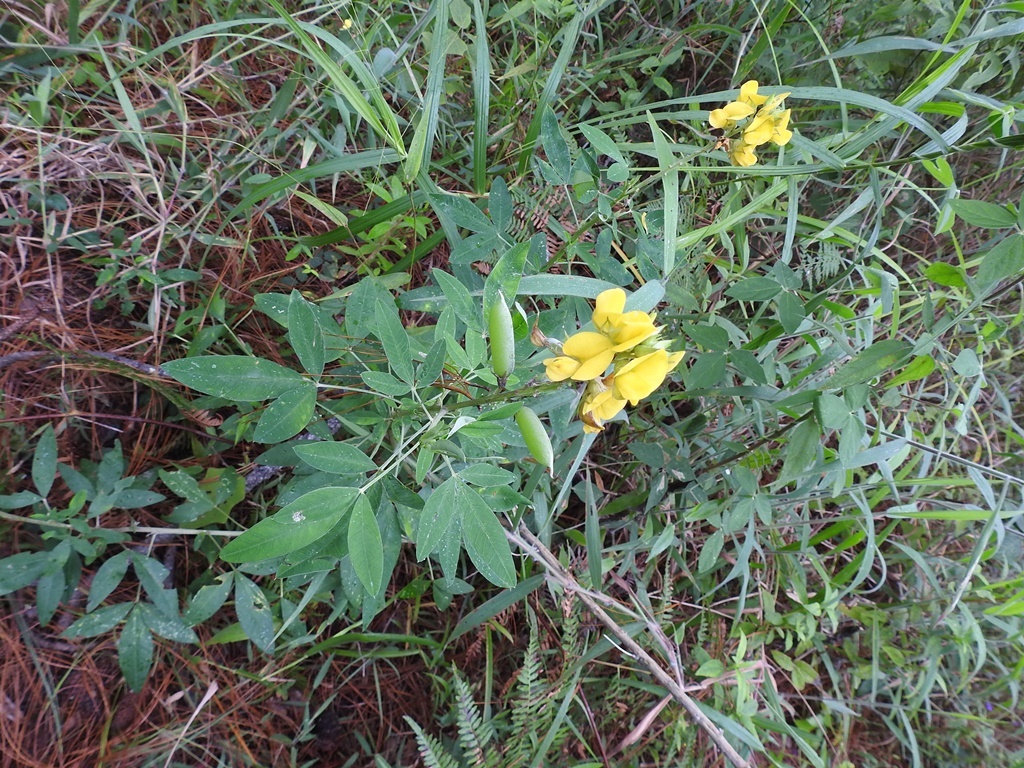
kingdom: Plantae
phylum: Tracheophyta
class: Magnoliopsida
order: Fabales
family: Fabaceae
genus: Crotalaria
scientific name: Crotalaria cajanifolia
